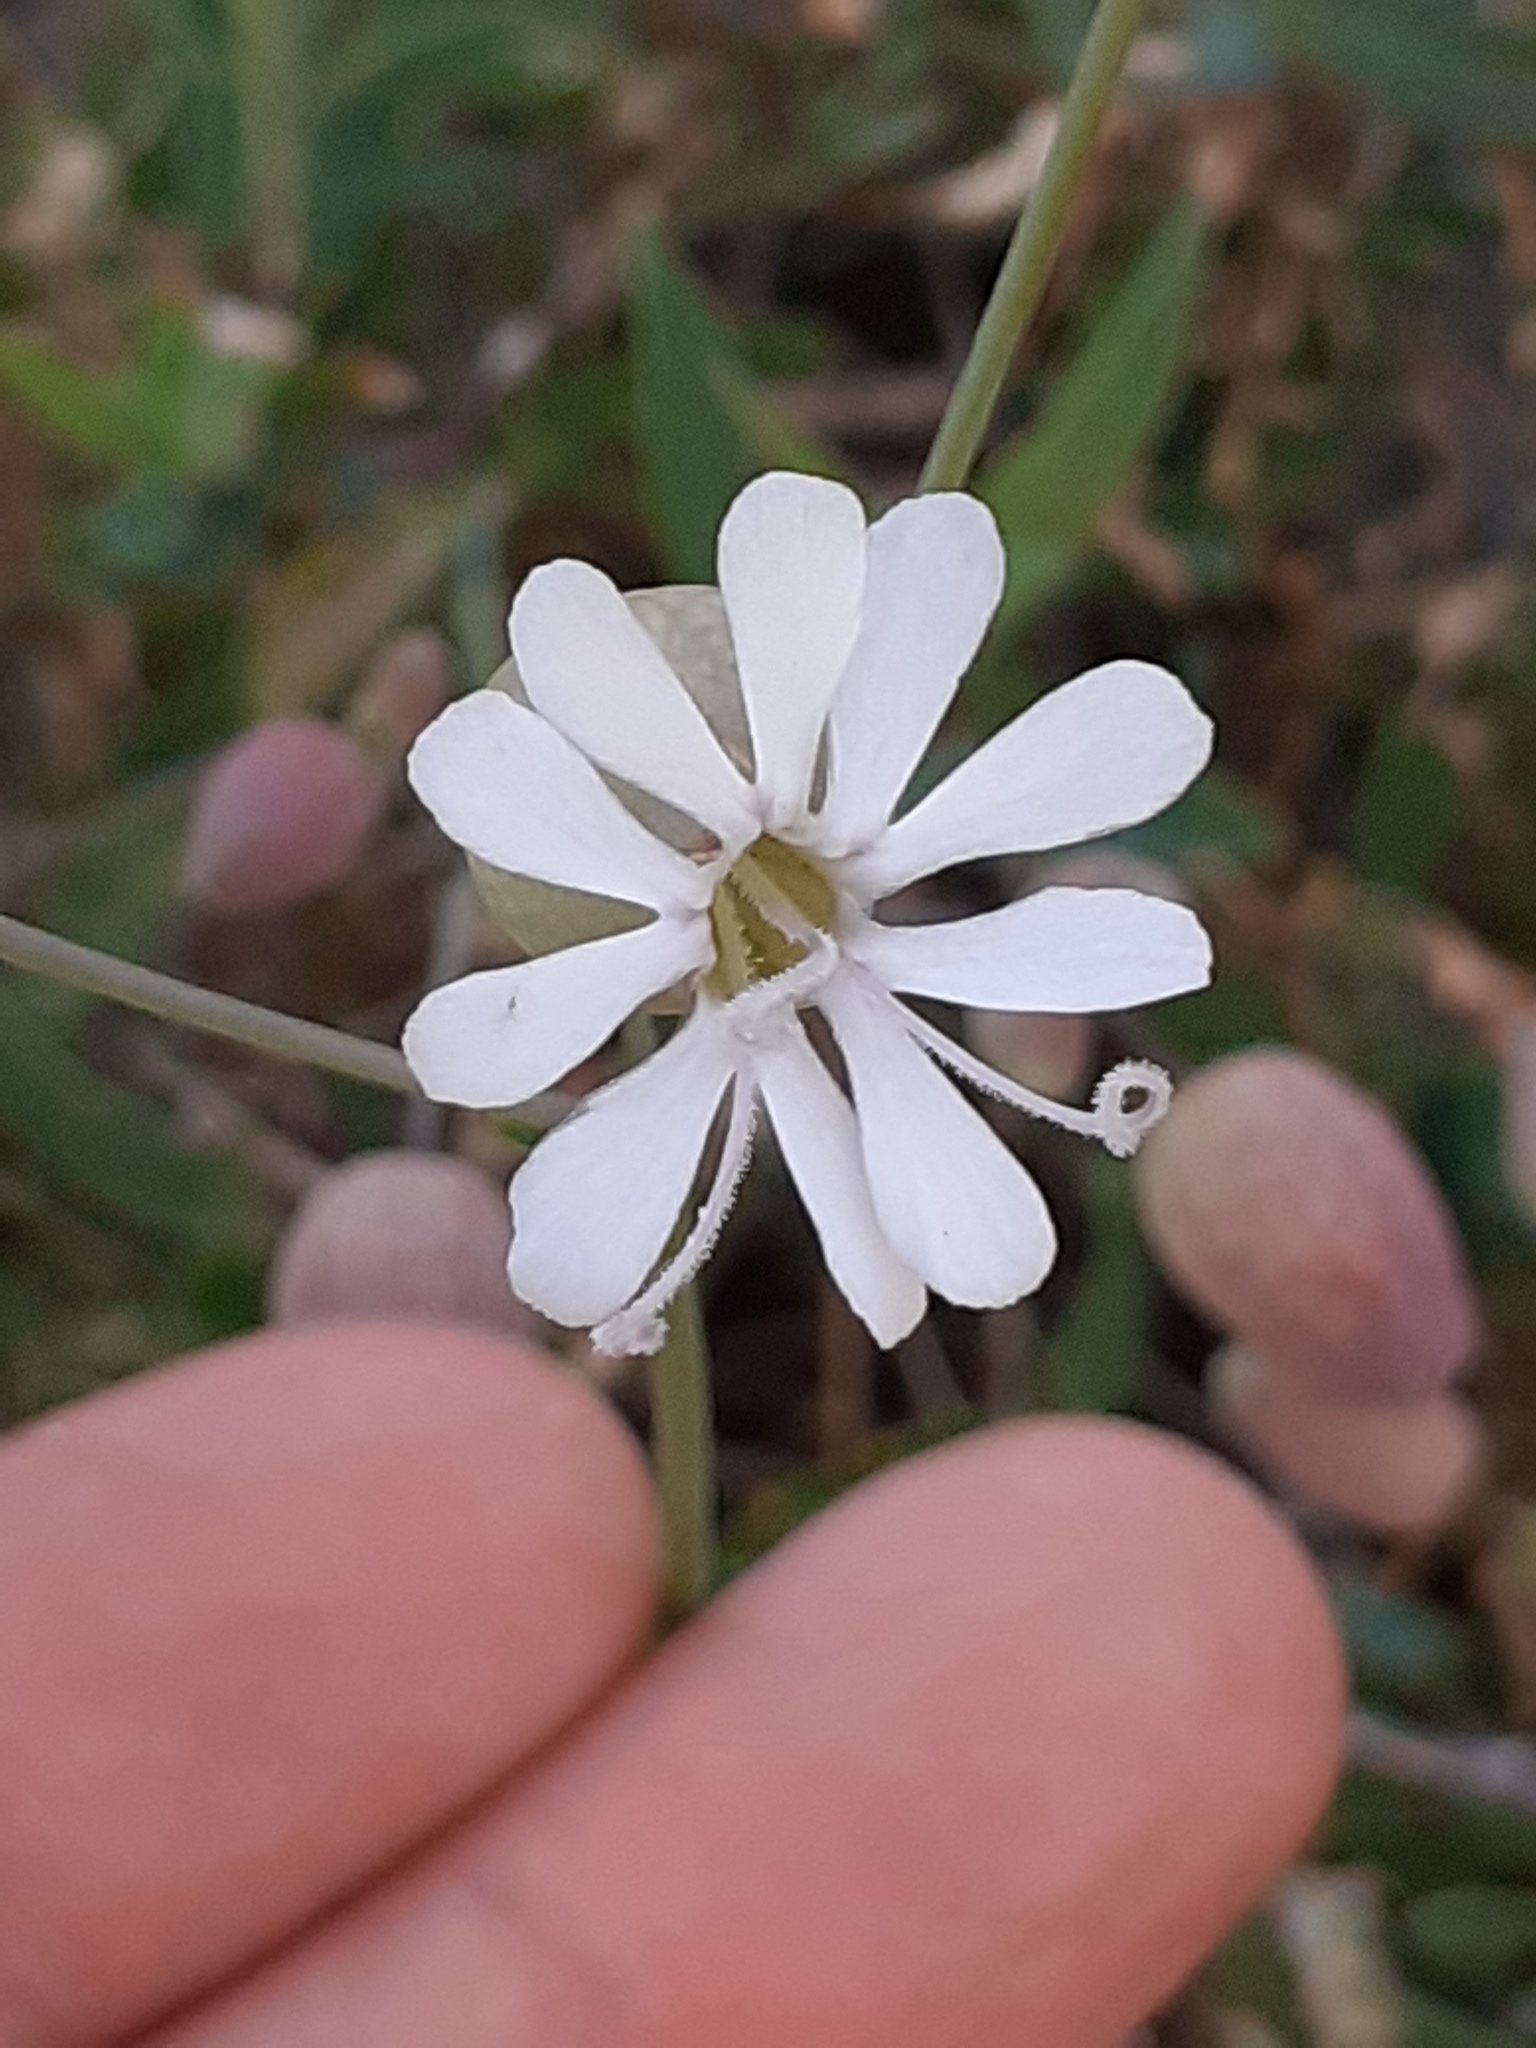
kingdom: Plantae
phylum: Tracheophyta
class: Magnoliopsida
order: Caryophyllales
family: Caryophyllaceae
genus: Silene
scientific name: Silene vulgaris
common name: Bladder campion
